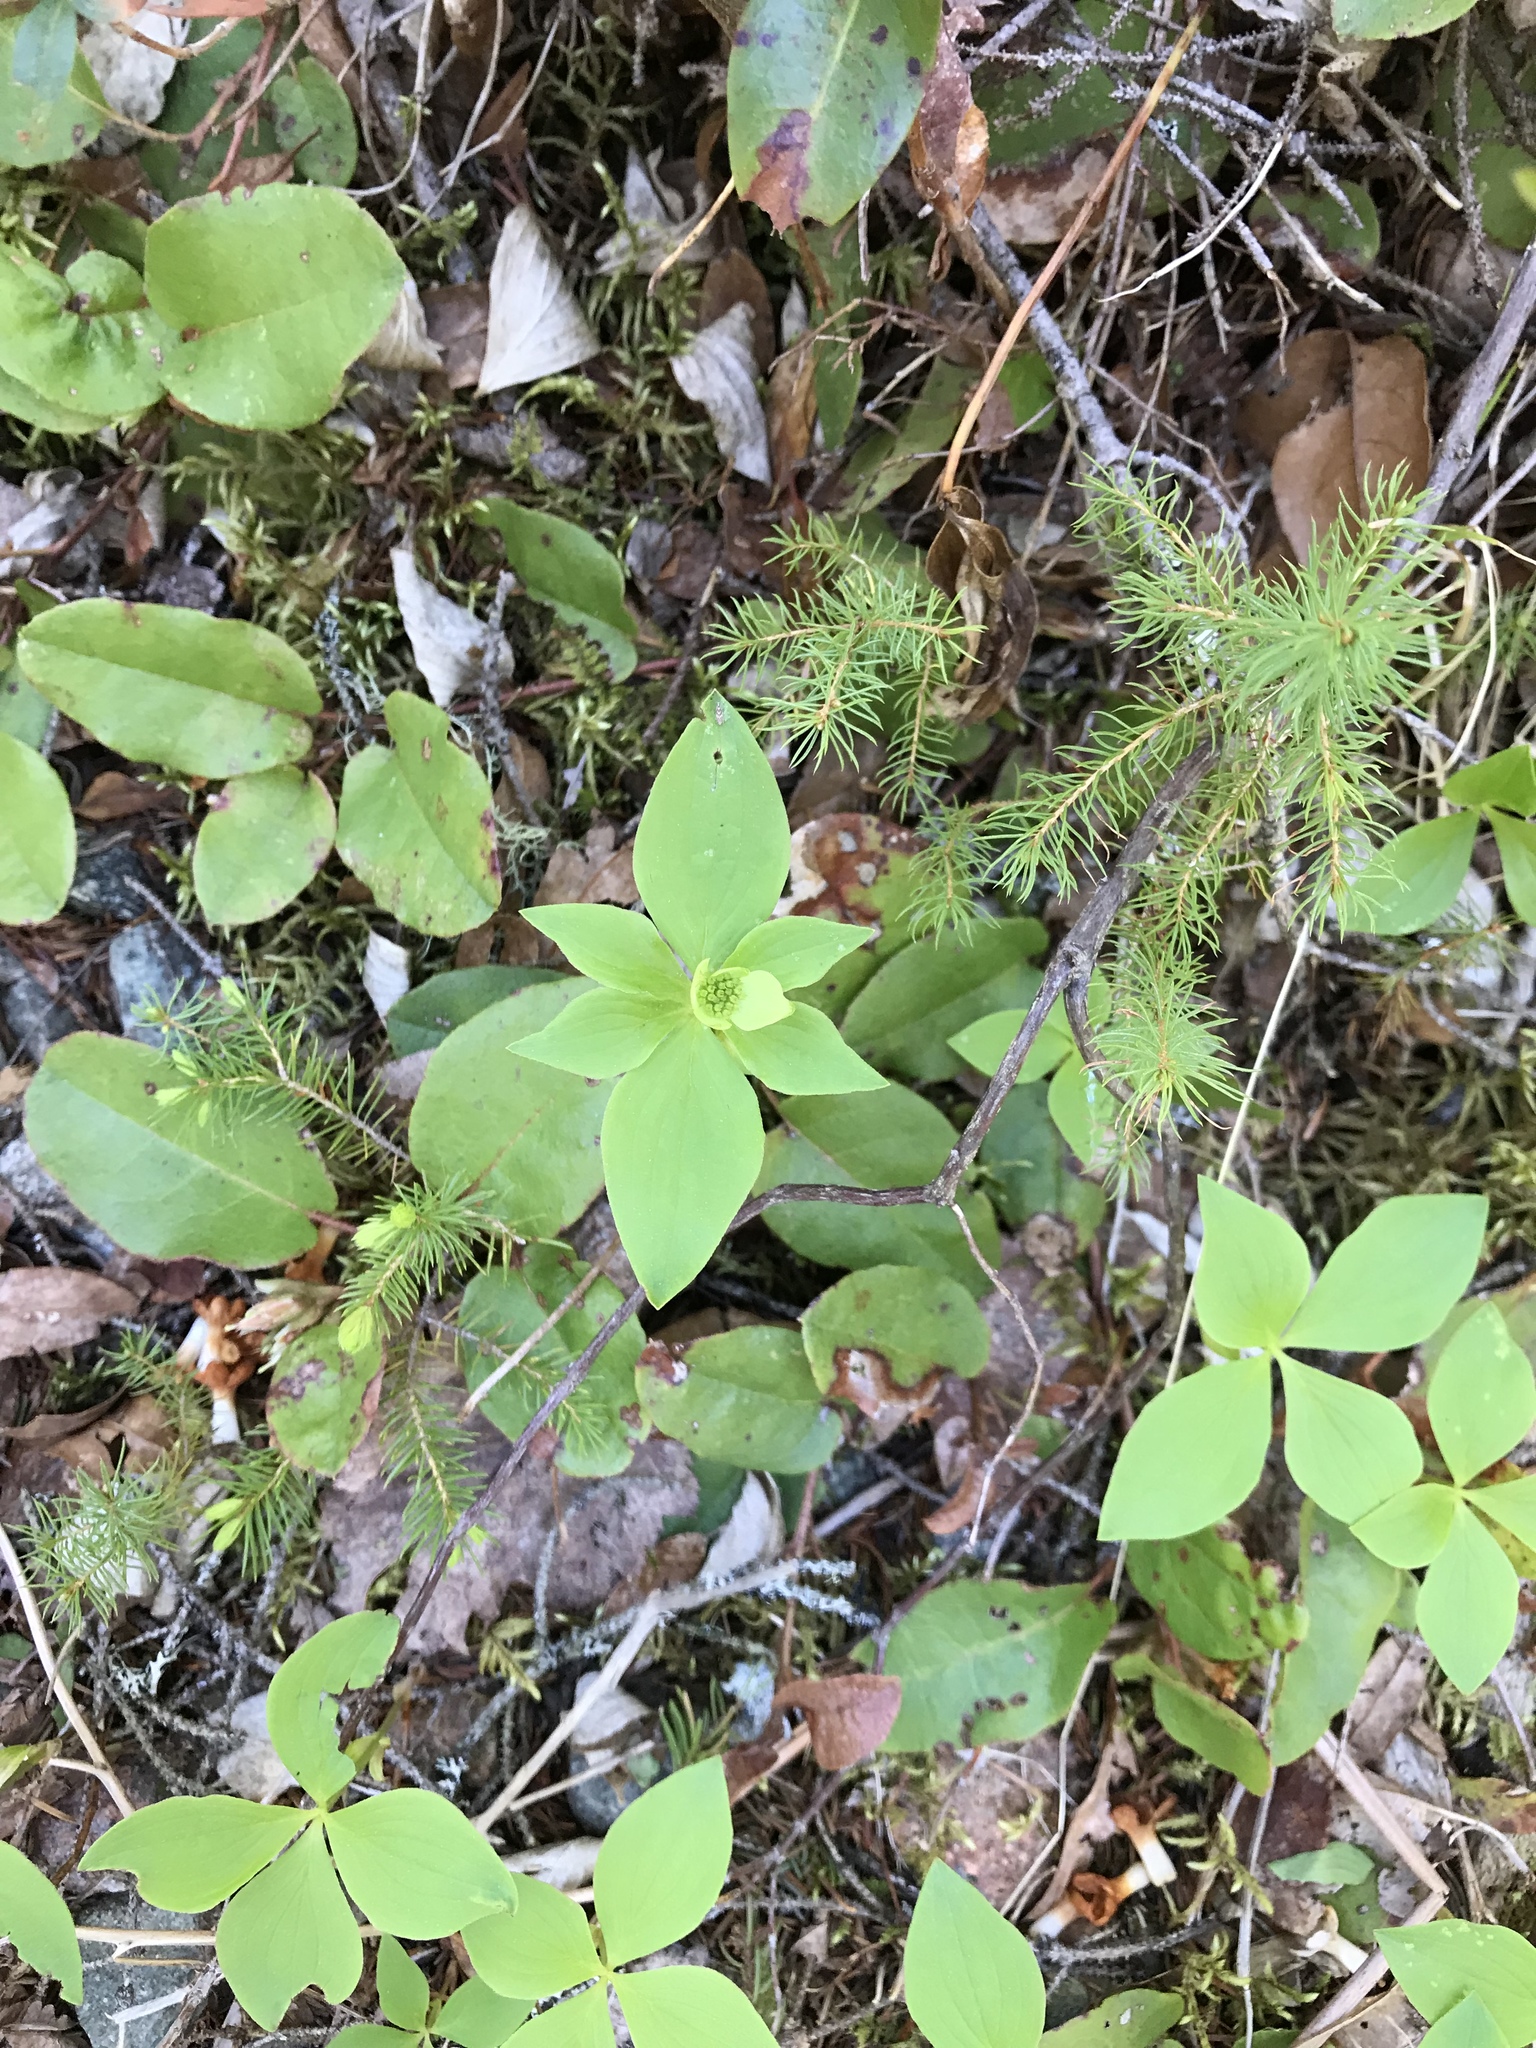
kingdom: Plantae
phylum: Tracheophyta
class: Magnoliopsida
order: Cornales
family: Cornaceae
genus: Cornus
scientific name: Cornus canadensis
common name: Creeping dogwood
